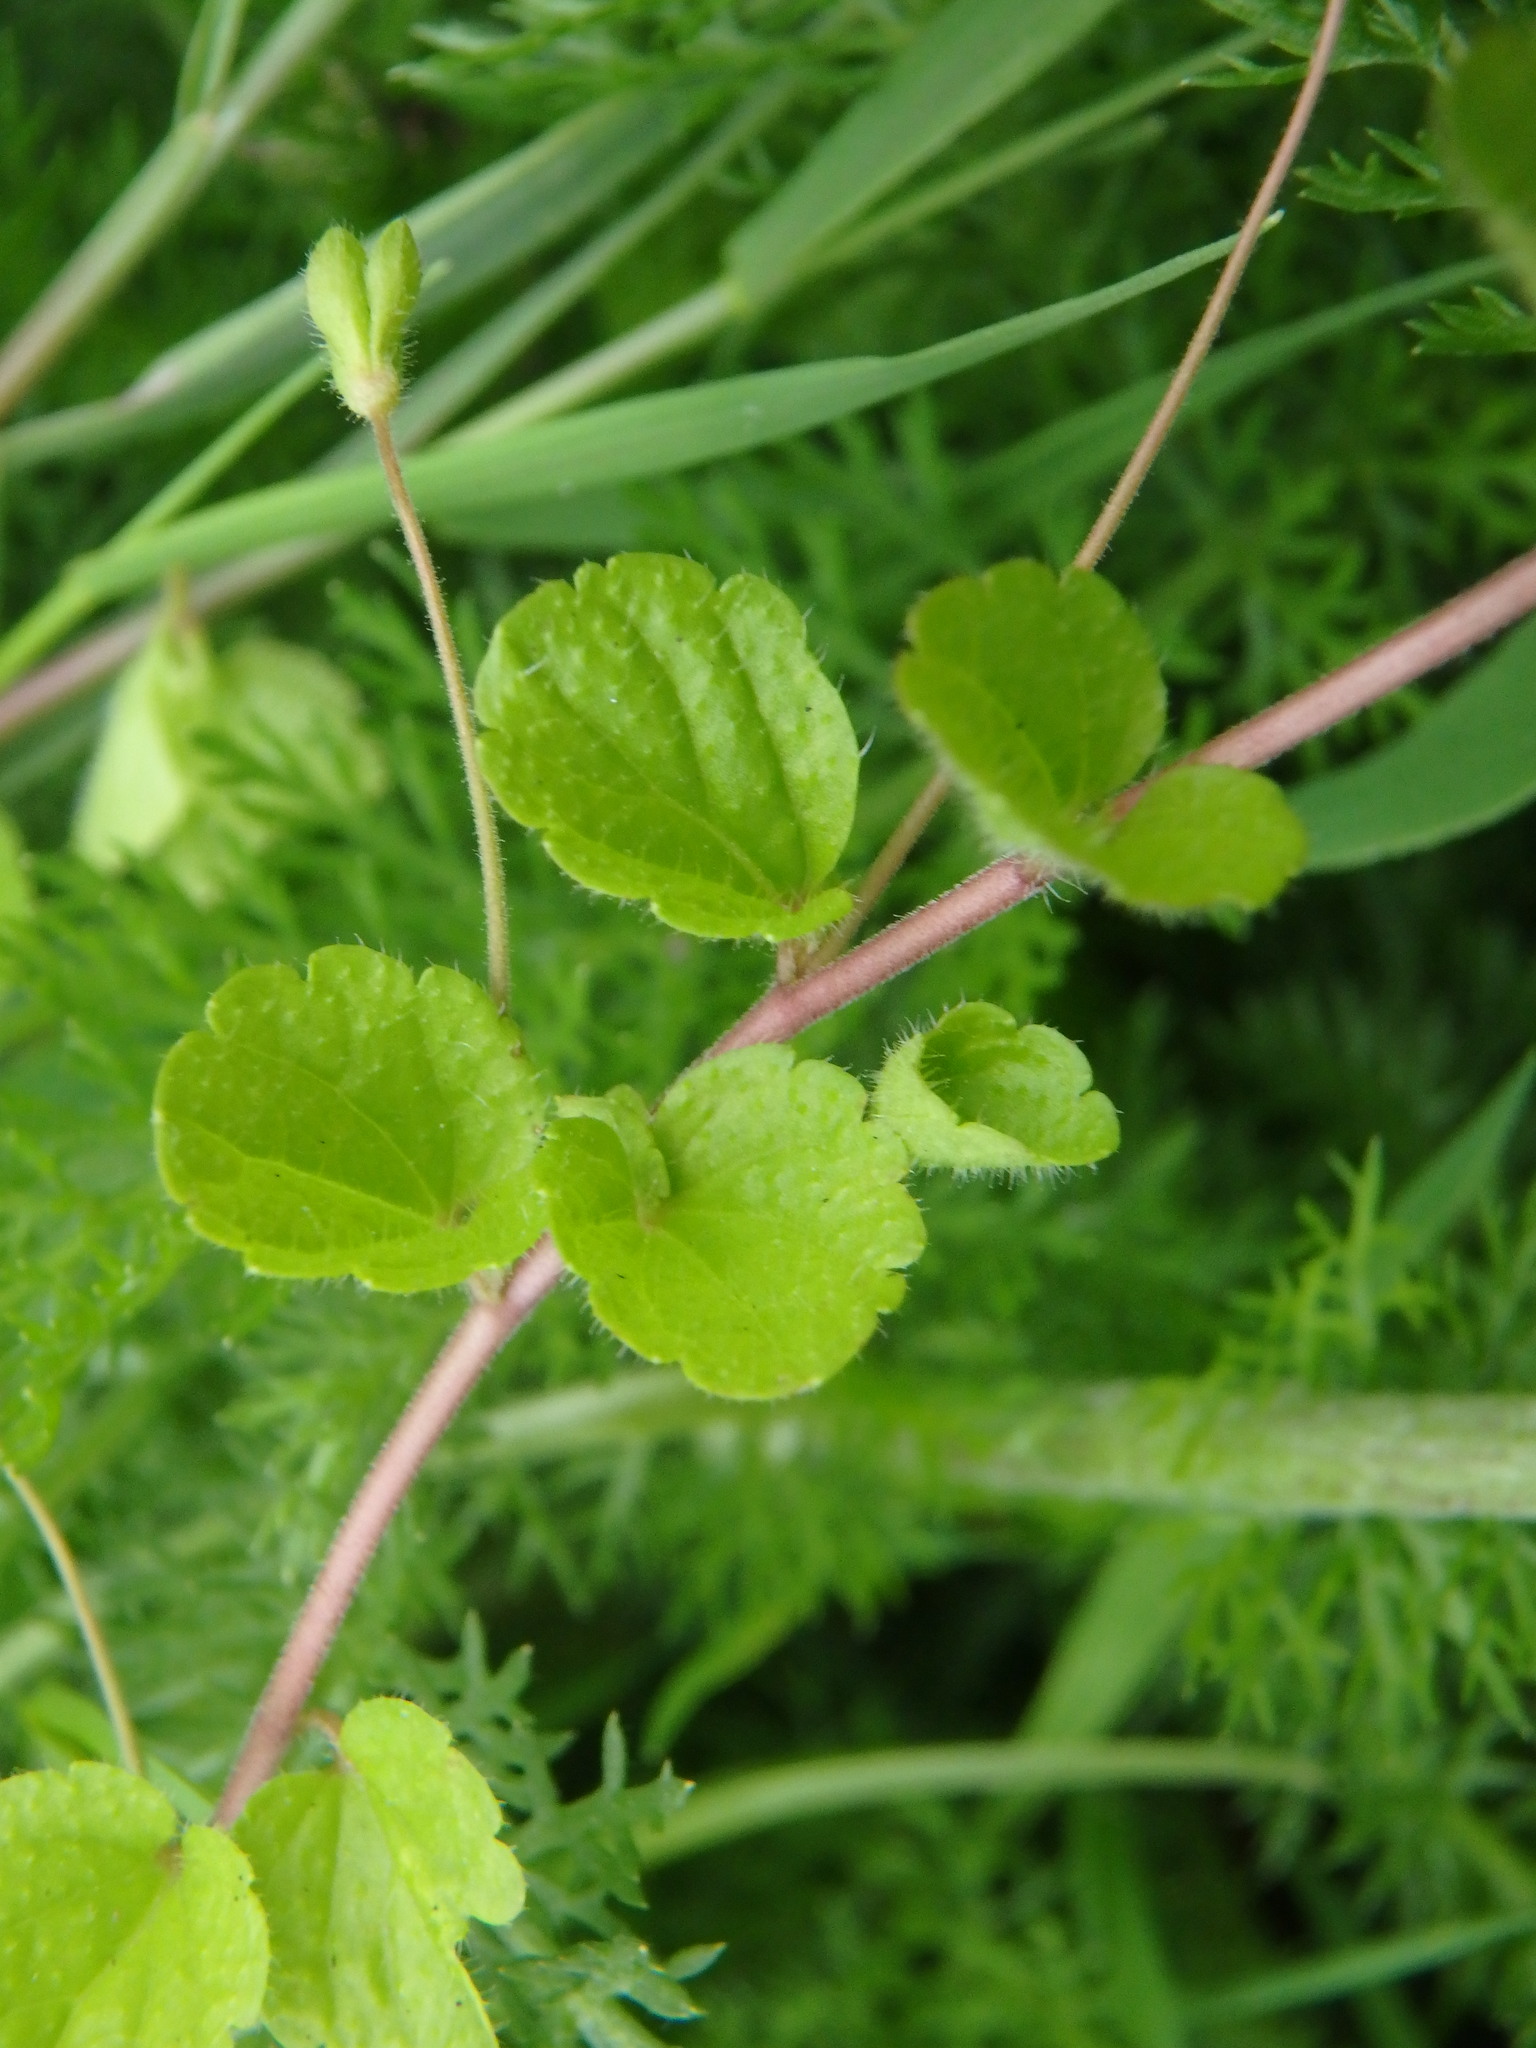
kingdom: Plantae
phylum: Tracheophyta
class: Magnoliopsida
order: Lamiales
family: Plantaginaceae
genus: Veronica
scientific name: Veronica filiformis
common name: Slender speedwell
